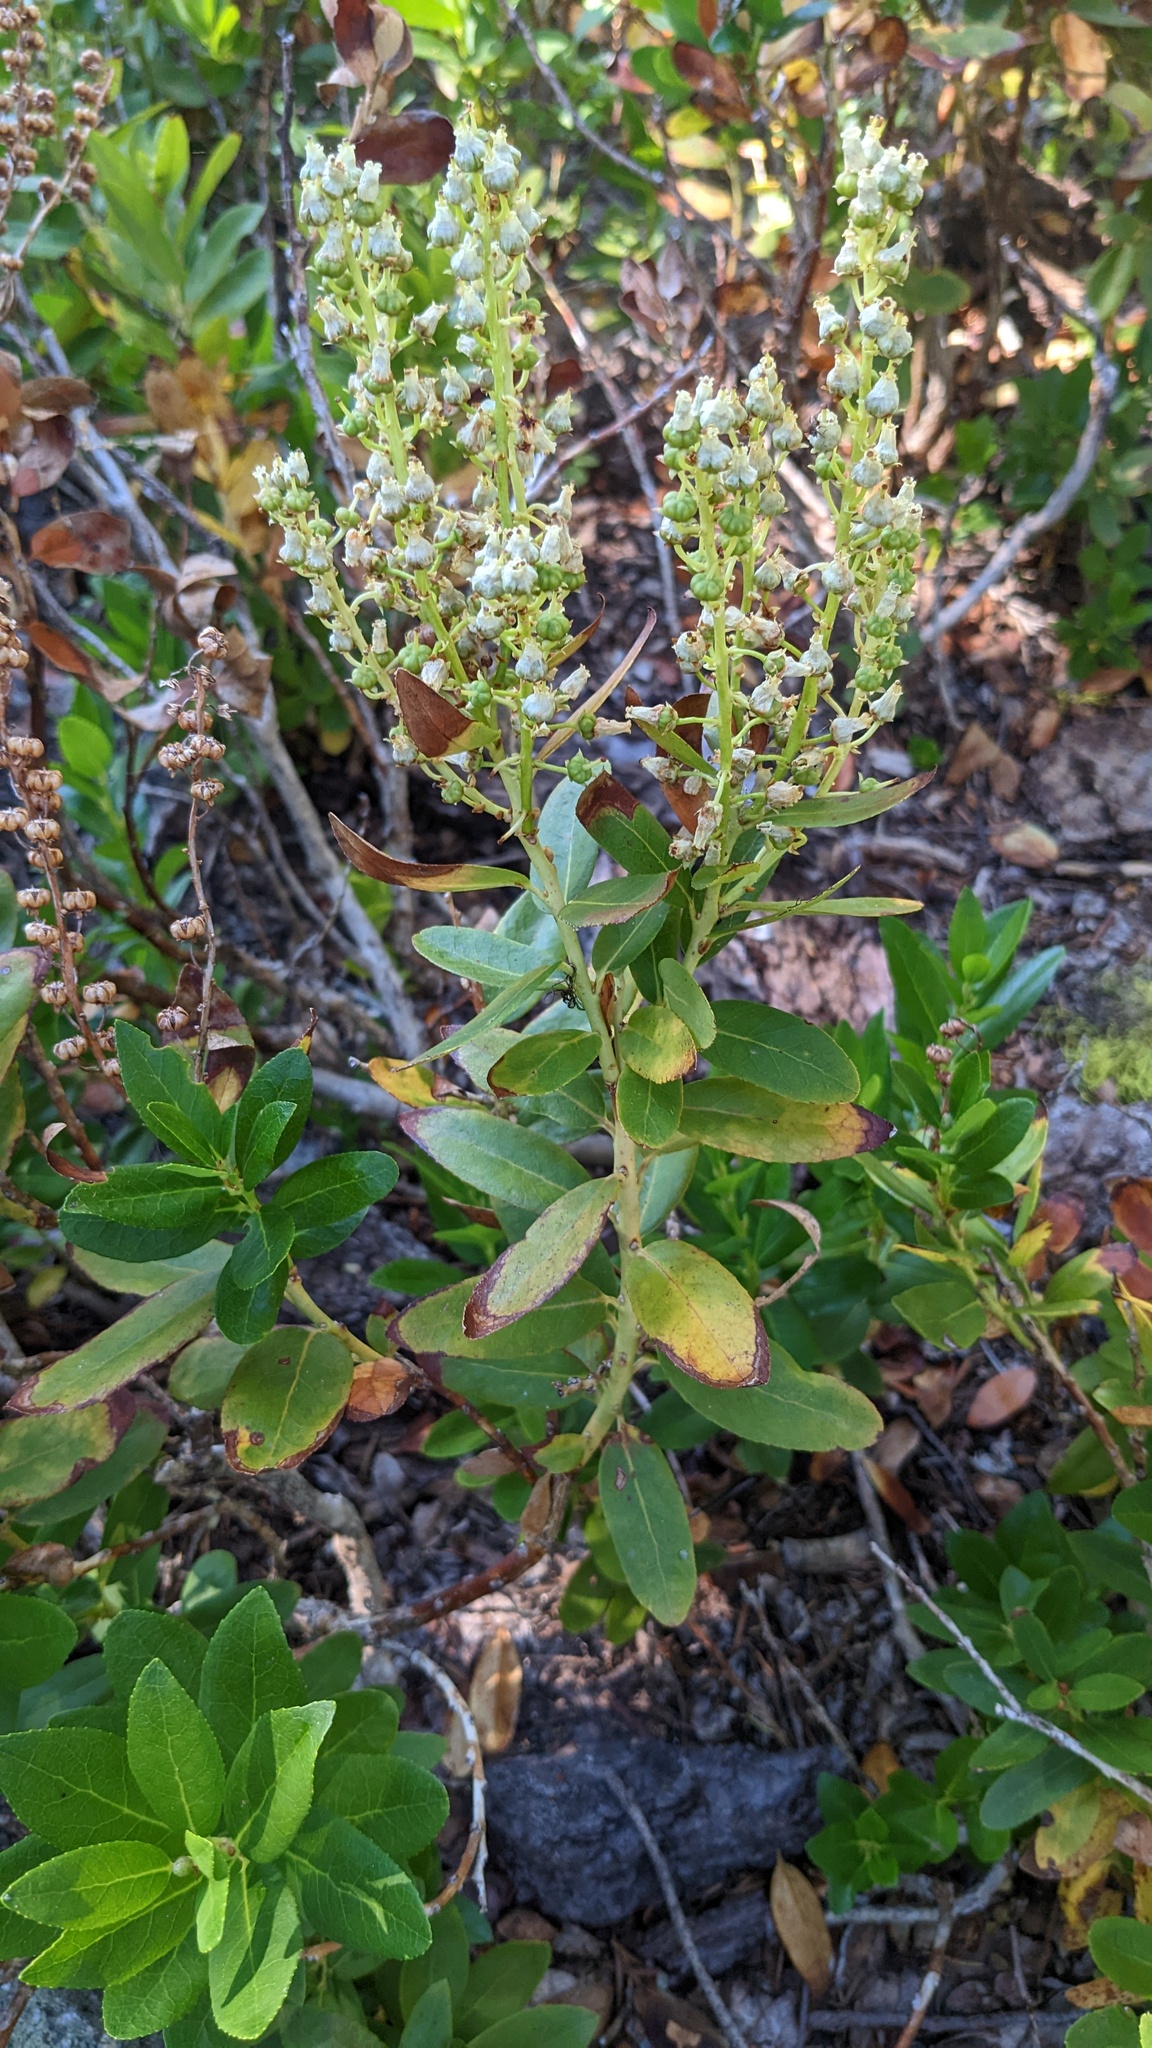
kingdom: Plantae
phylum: Tracheophyta
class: Magnoliopsida
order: Ericales
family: Ericaceae
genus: Leucothoe
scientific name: Leucothoe davisiae
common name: Sierra-laurel
